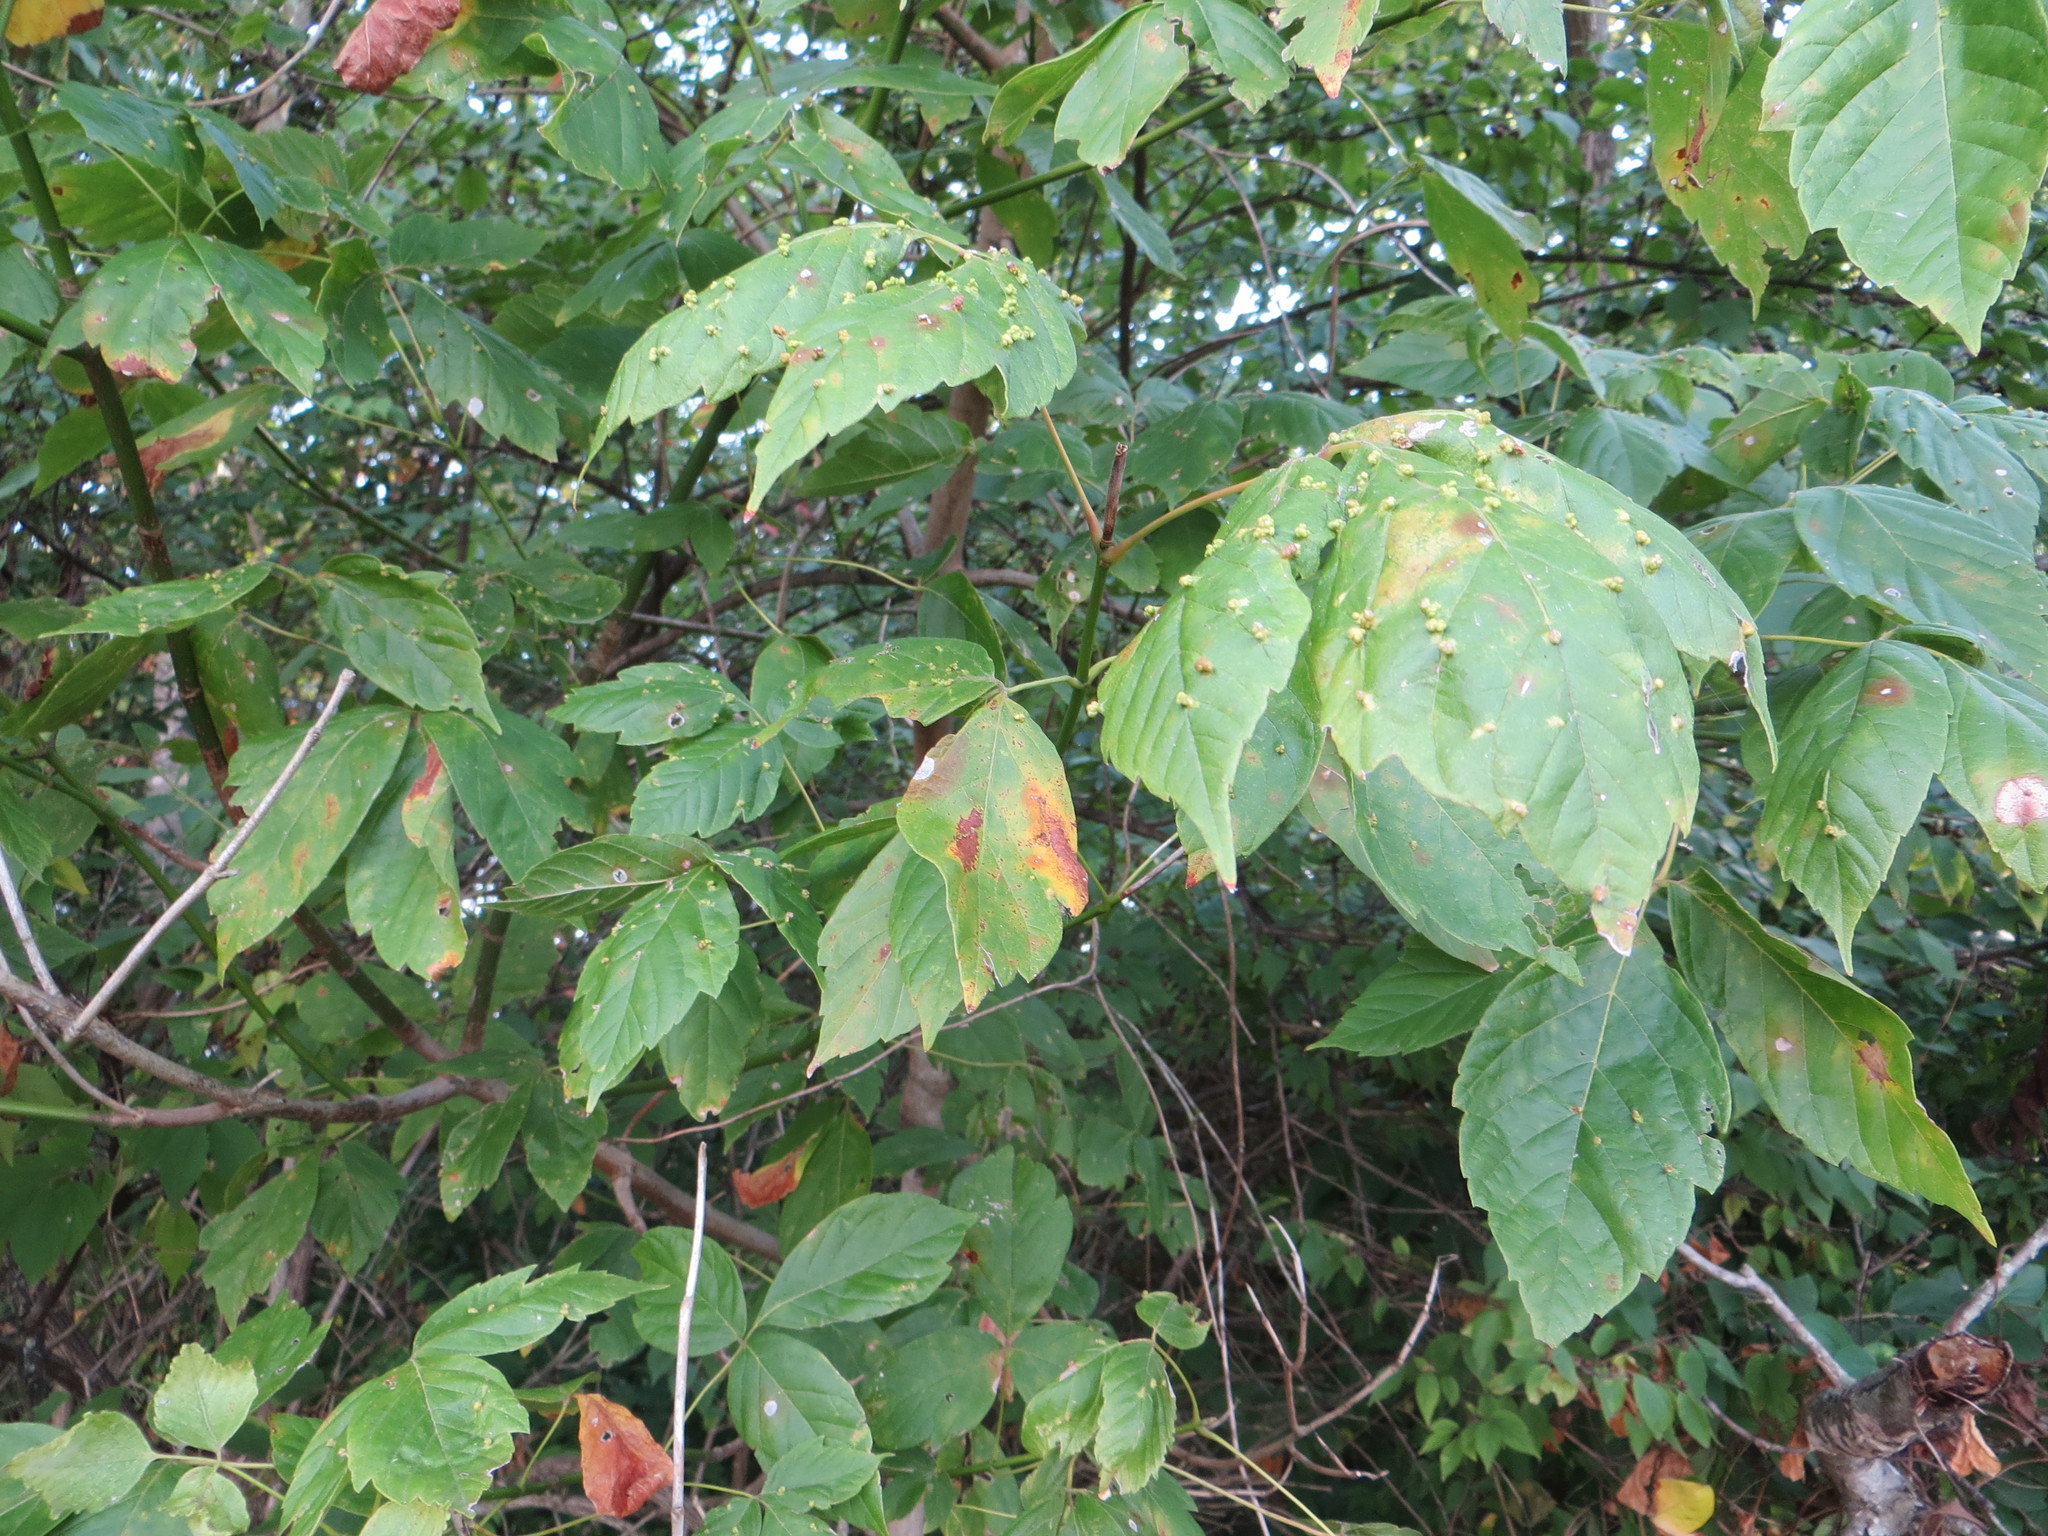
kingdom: Plantae
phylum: Tracheophyta
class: Magnoliopsida
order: Sapindales
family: Sapindaceae
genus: Acer
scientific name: Acer negundo
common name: Ashleaf maple
